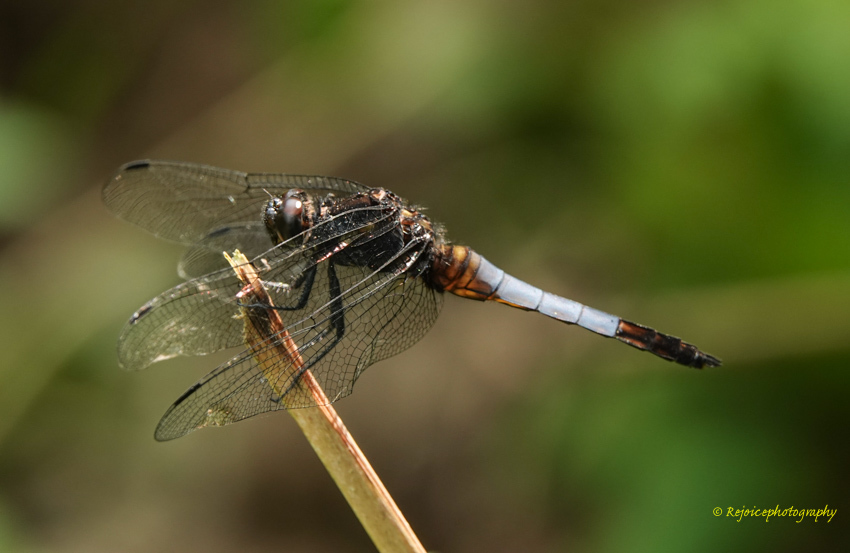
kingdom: Animalia
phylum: Arthropoda
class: Insecta
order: Odonata
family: Libellulidae
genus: Orthetrum
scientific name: Orthetrum triangulare
